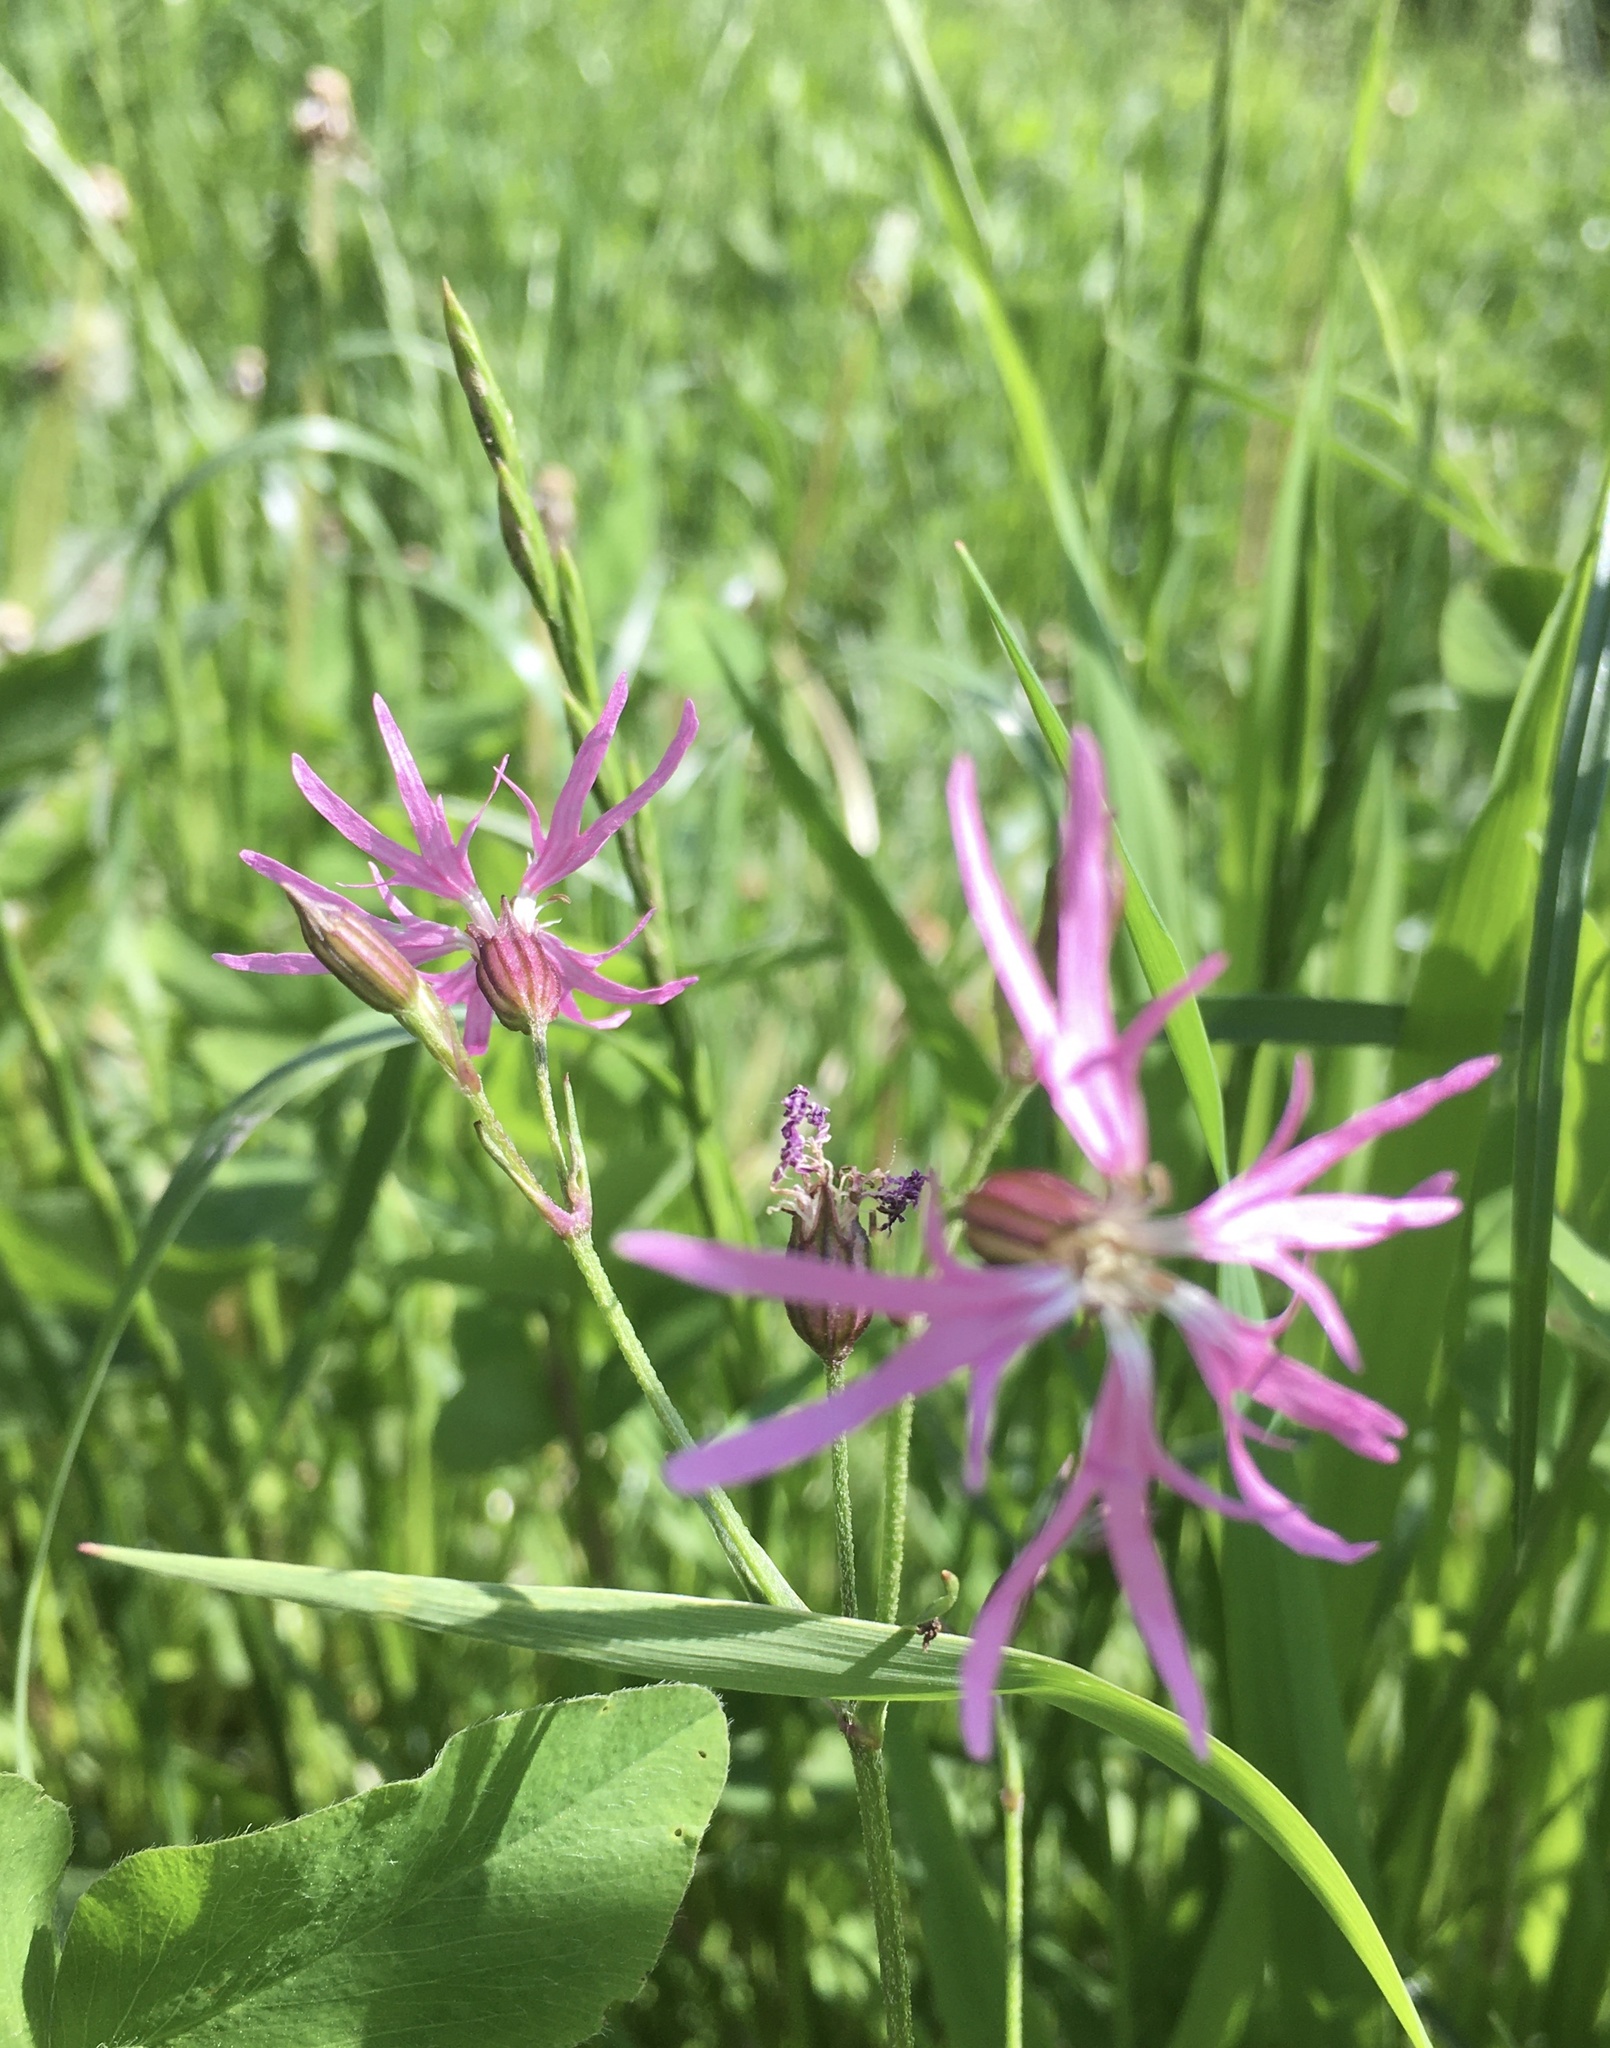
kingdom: Plantae
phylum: Tracheophyta
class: Magnoliopsida
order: Caryophyllales
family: Caryophyllaceae
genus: Silene
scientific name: Silene flos-cuculi
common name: Ragged-robin
